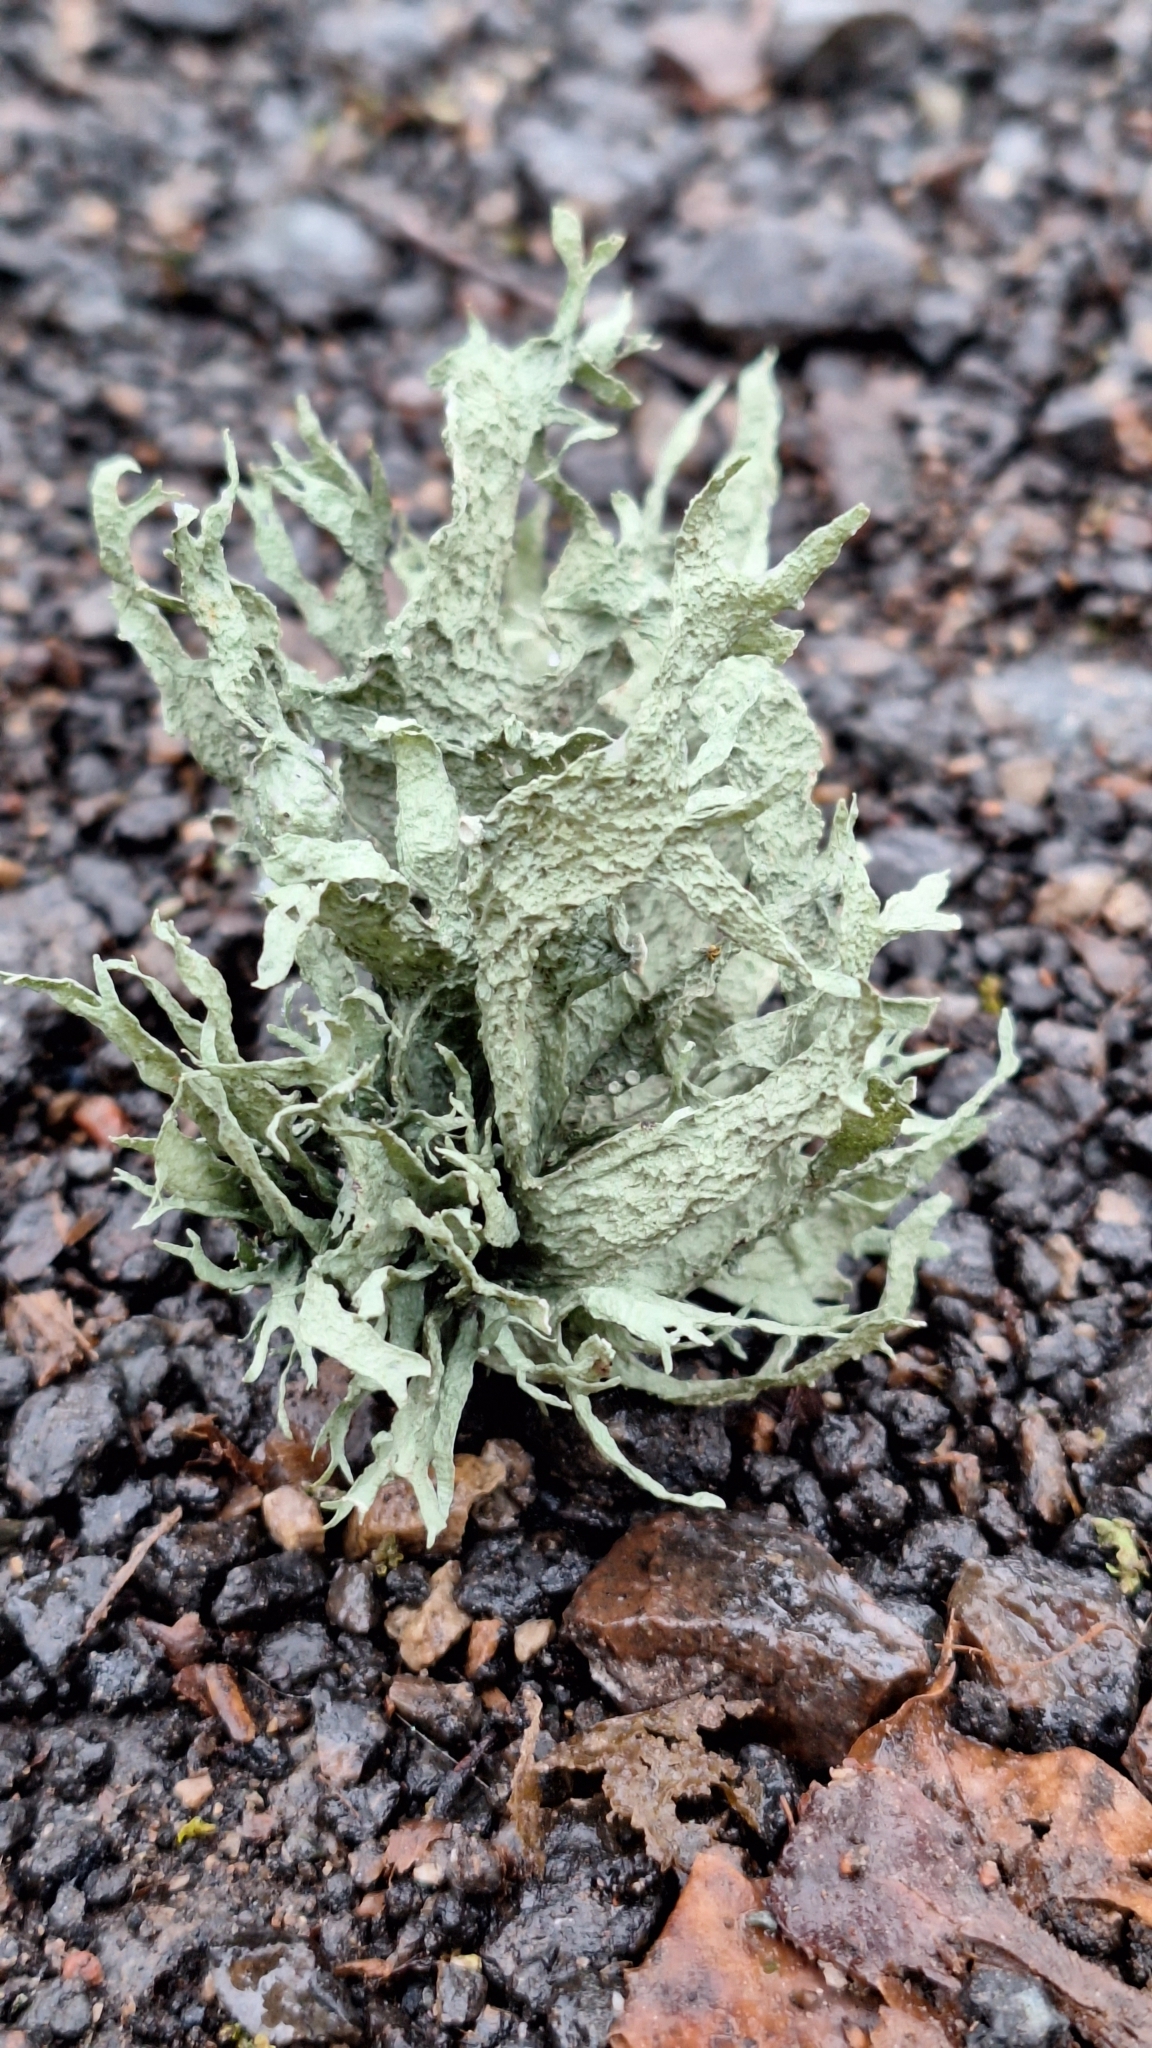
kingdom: Fungi
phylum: Ascomycota
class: Lecanoromycetes
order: Lecanorales
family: Ramalinaceae
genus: Ramalina
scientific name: Ramalina fraxinea
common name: Cartilage lichen
